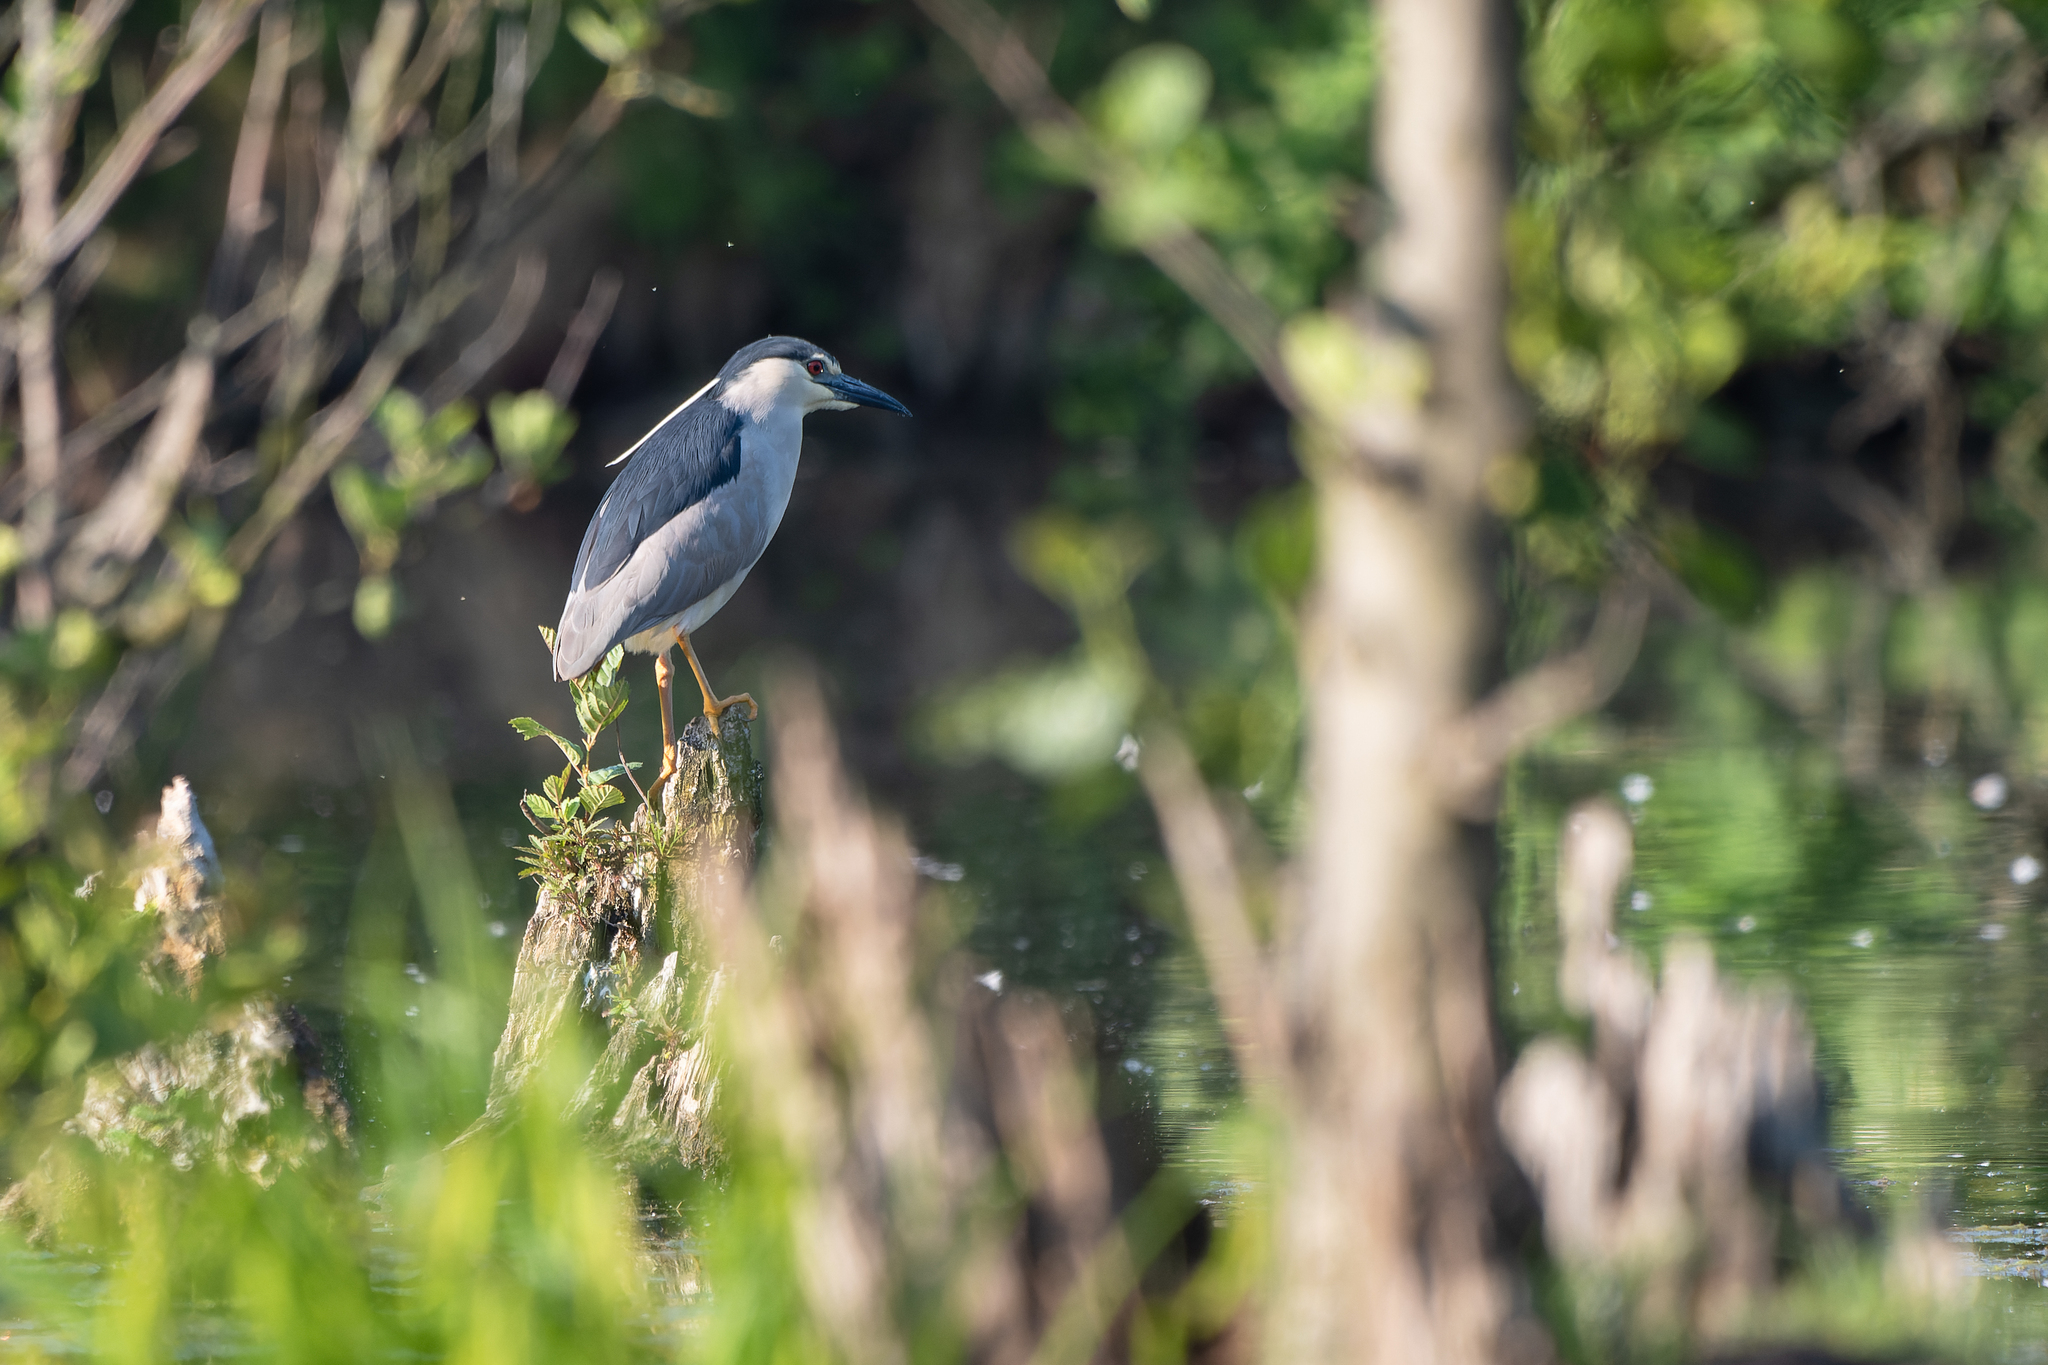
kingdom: Animalia
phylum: Chordata
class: Aves
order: Pelecaniformes
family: Ardeidae
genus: Nycticorax
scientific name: Nycticorax nycticorax
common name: Black-crowned night heron
